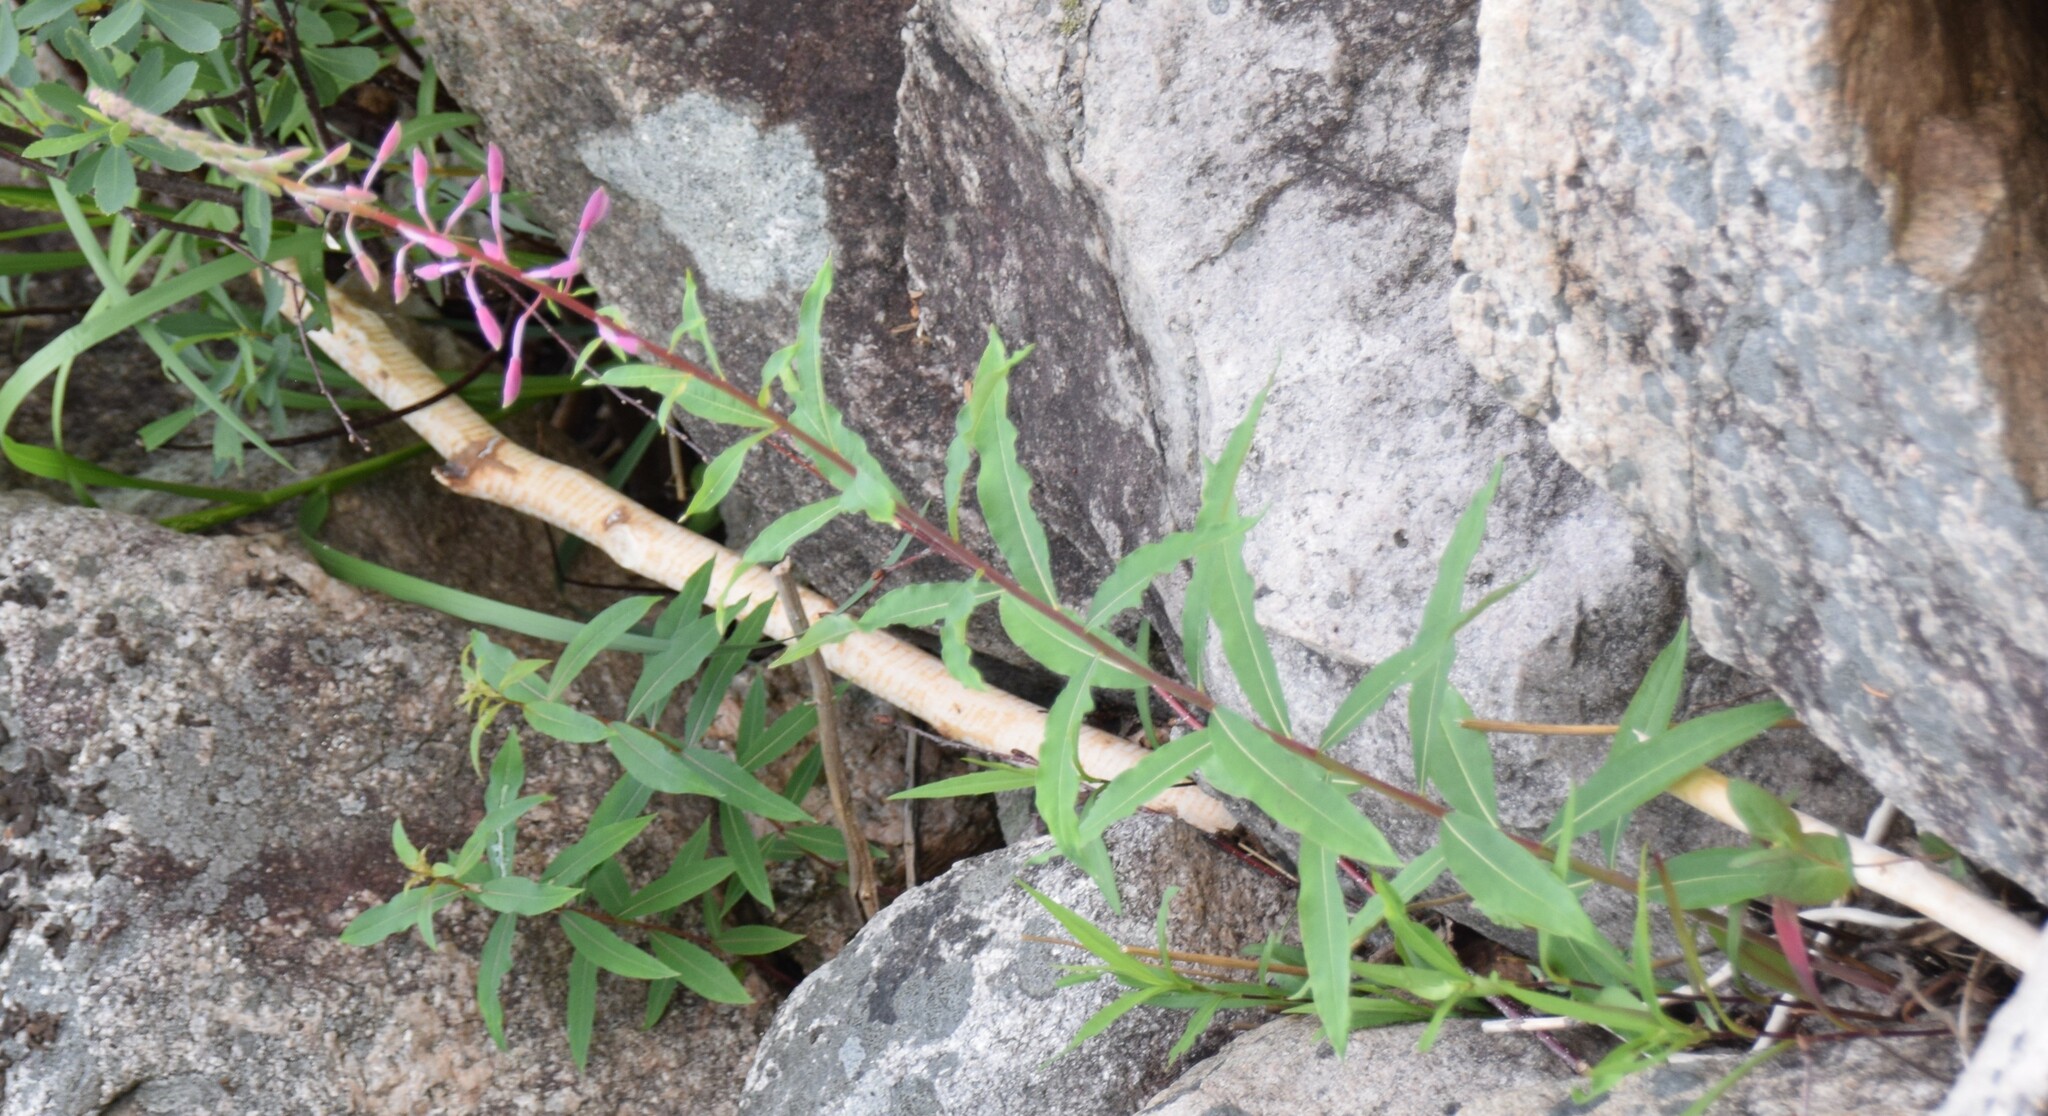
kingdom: Plantae
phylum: Tracheophyta
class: Magnoliopsida
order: Myrtales
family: Onagraceae
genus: Chamaenerion
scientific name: Chamaenerion angustifolium
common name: Fireweed
